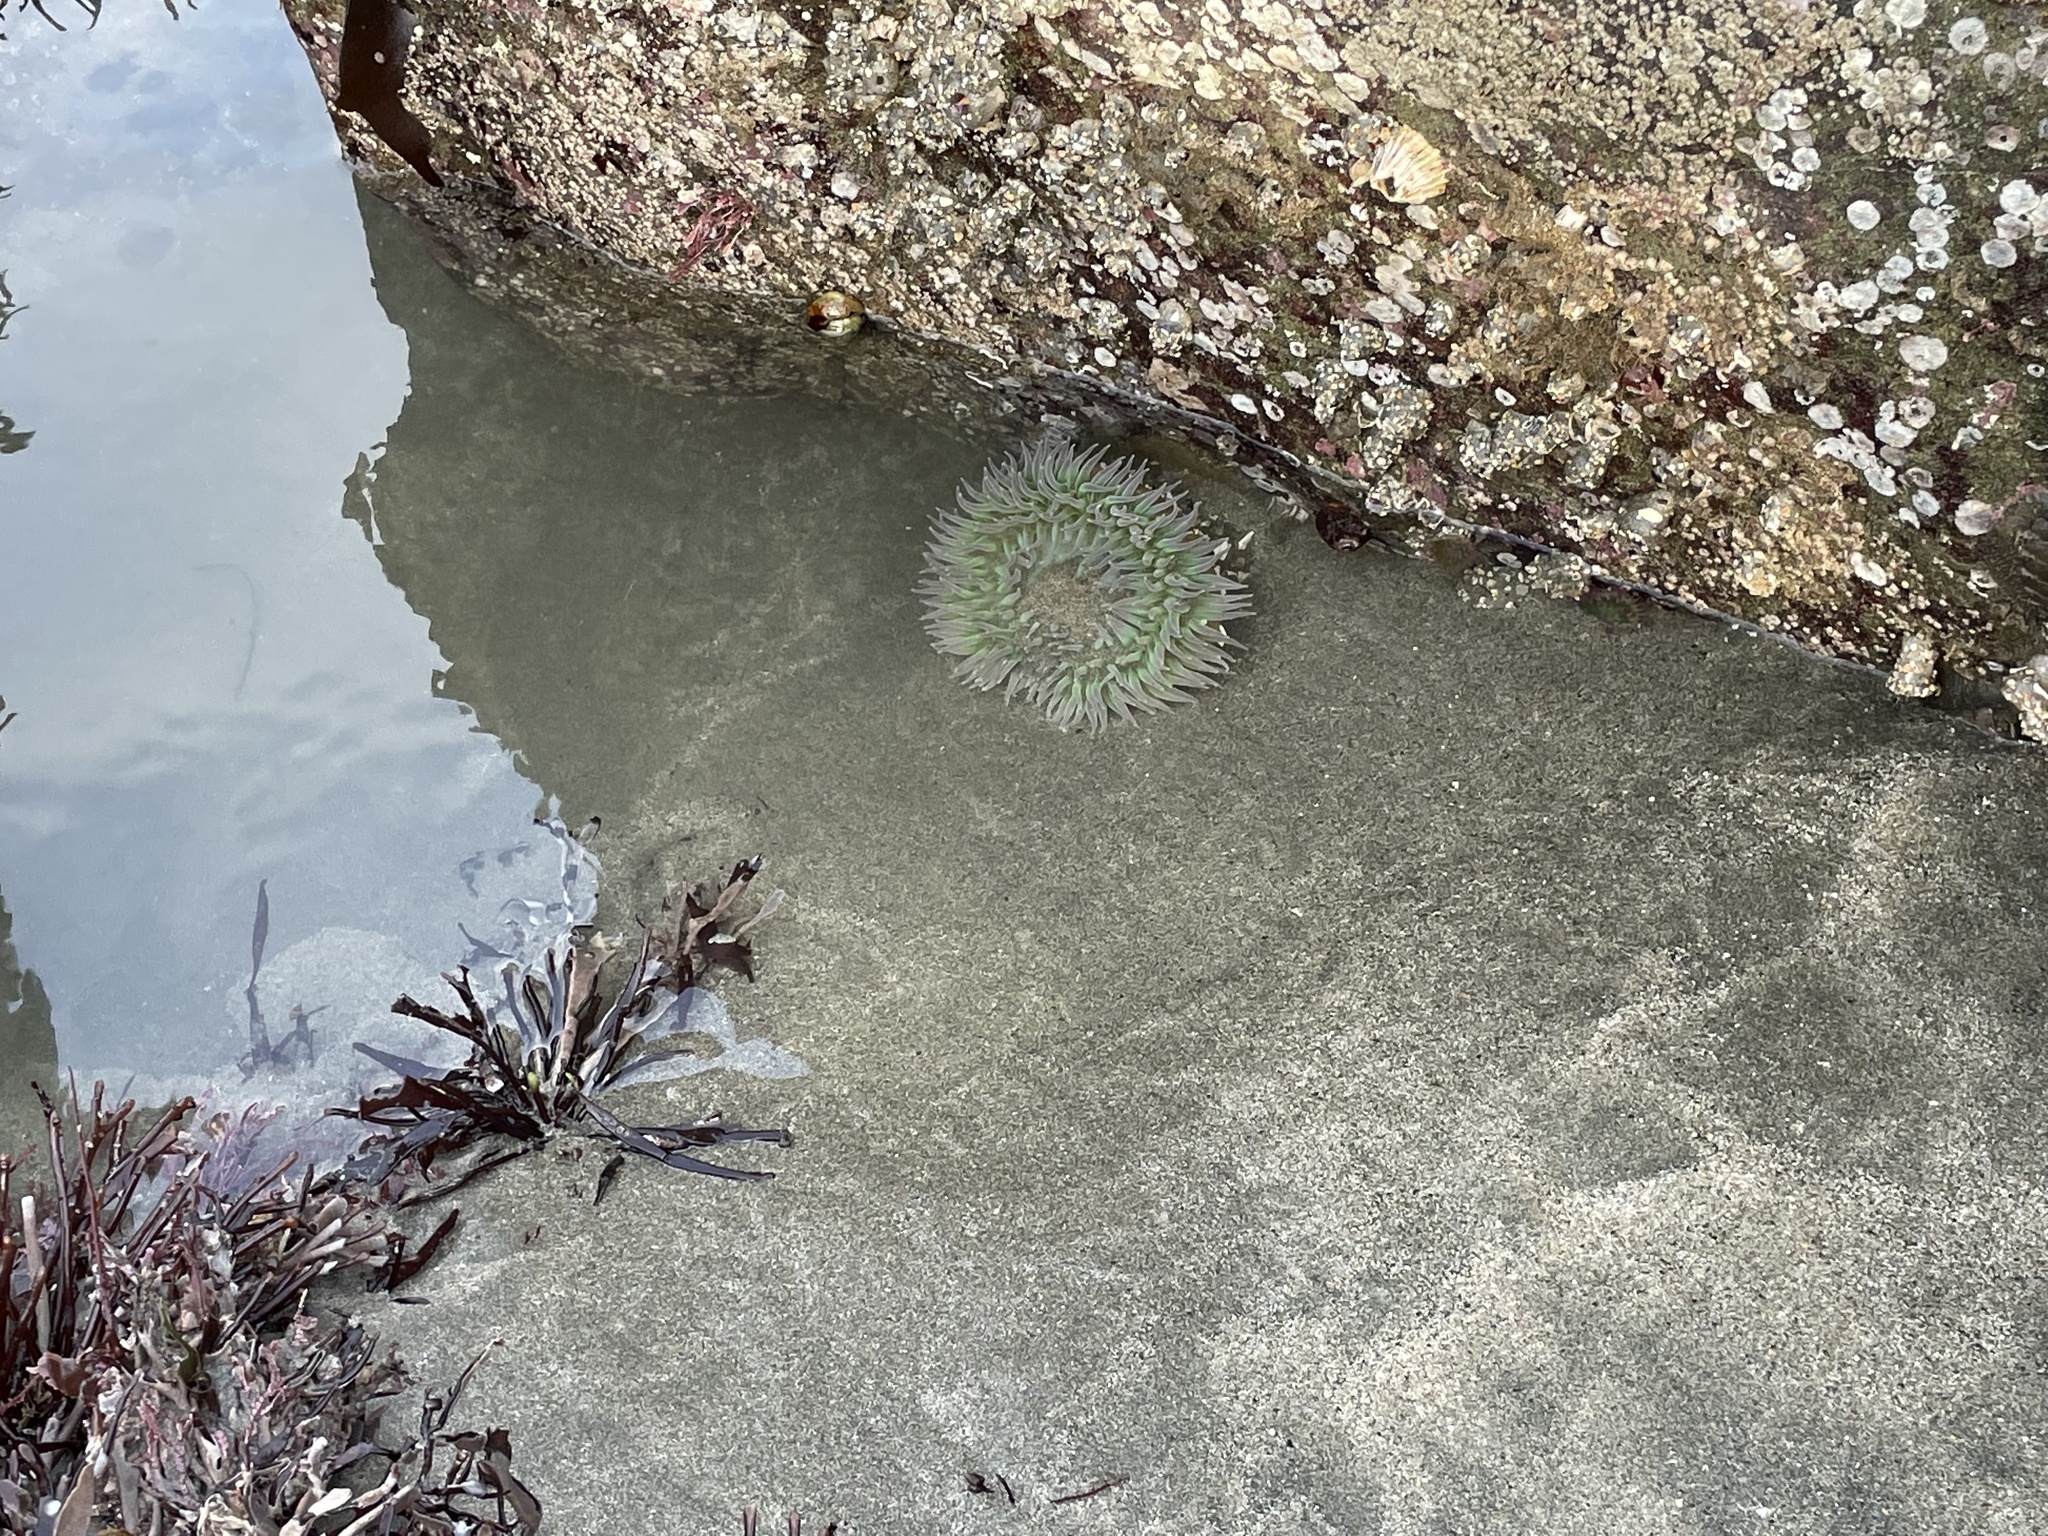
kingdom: Animalia
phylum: Cnidaria
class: Anthozoa
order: Actiniaria
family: Actiniidae
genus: Anthopleura
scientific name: Anthopleura xanthogrammica
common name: Giant green anemone
